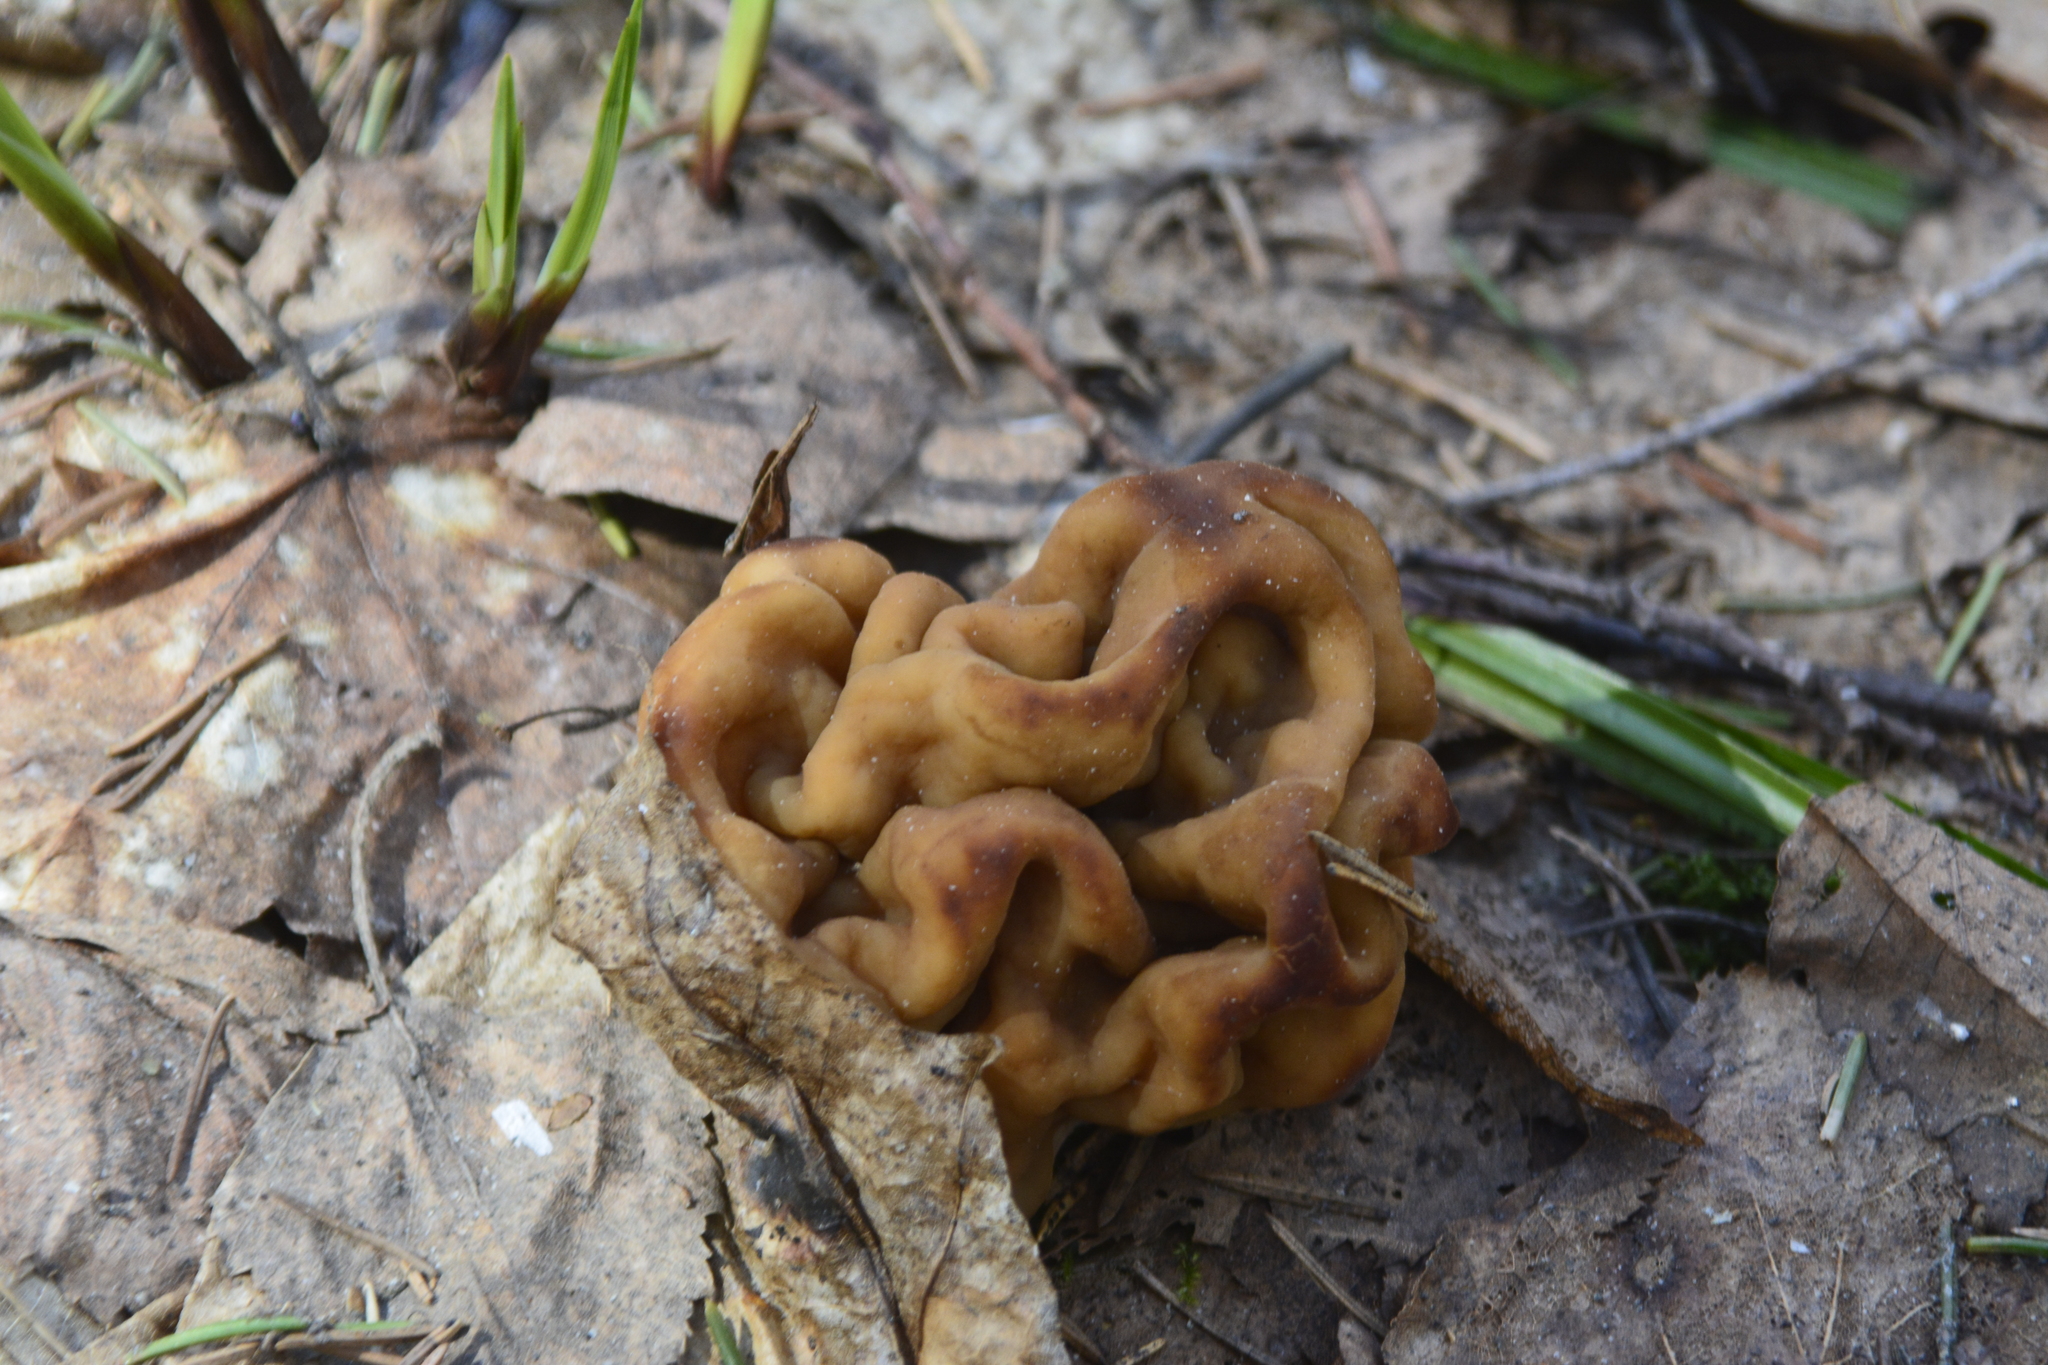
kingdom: Fungi
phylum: Ascomycota
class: Pezizomycetes
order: Pezizales
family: Discinaceae
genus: Gyromitra
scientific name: Gyromitra gigas
